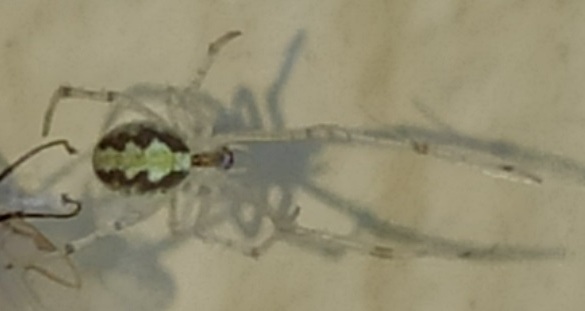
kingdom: Animalia
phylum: Arthropoda
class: Arachnida
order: Araneae
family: Theridiidae
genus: Theridion
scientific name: Theridion varians
